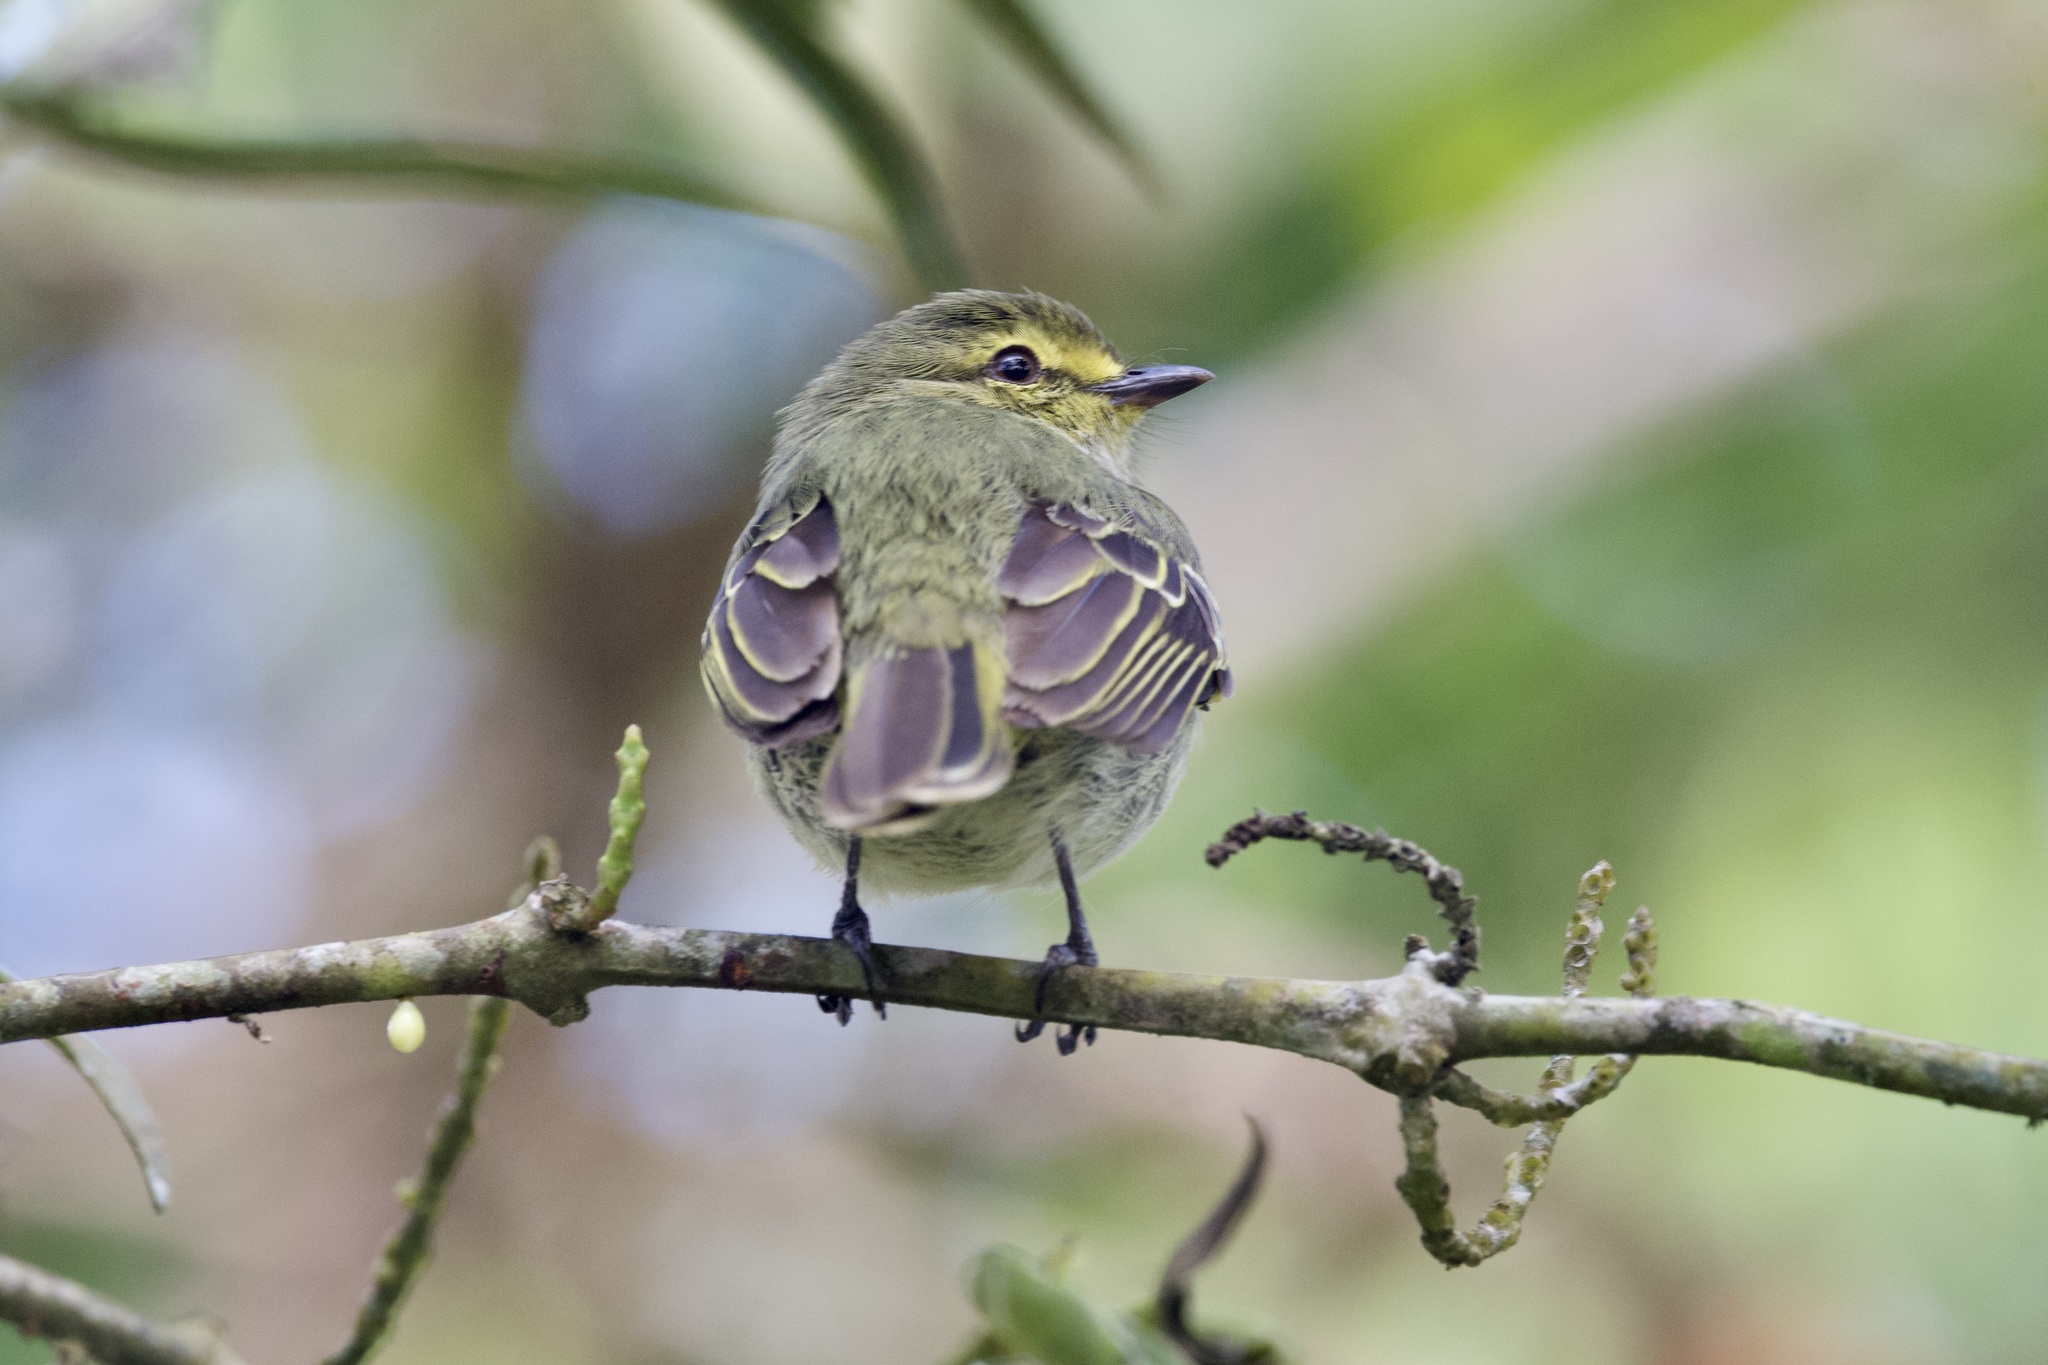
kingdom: Animalia
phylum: Chordata
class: Aves
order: Passeriformes
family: Tyrannidae
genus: Zimmerius
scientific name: Zimmerius chrysops
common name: Golden-faced tyrannulet
